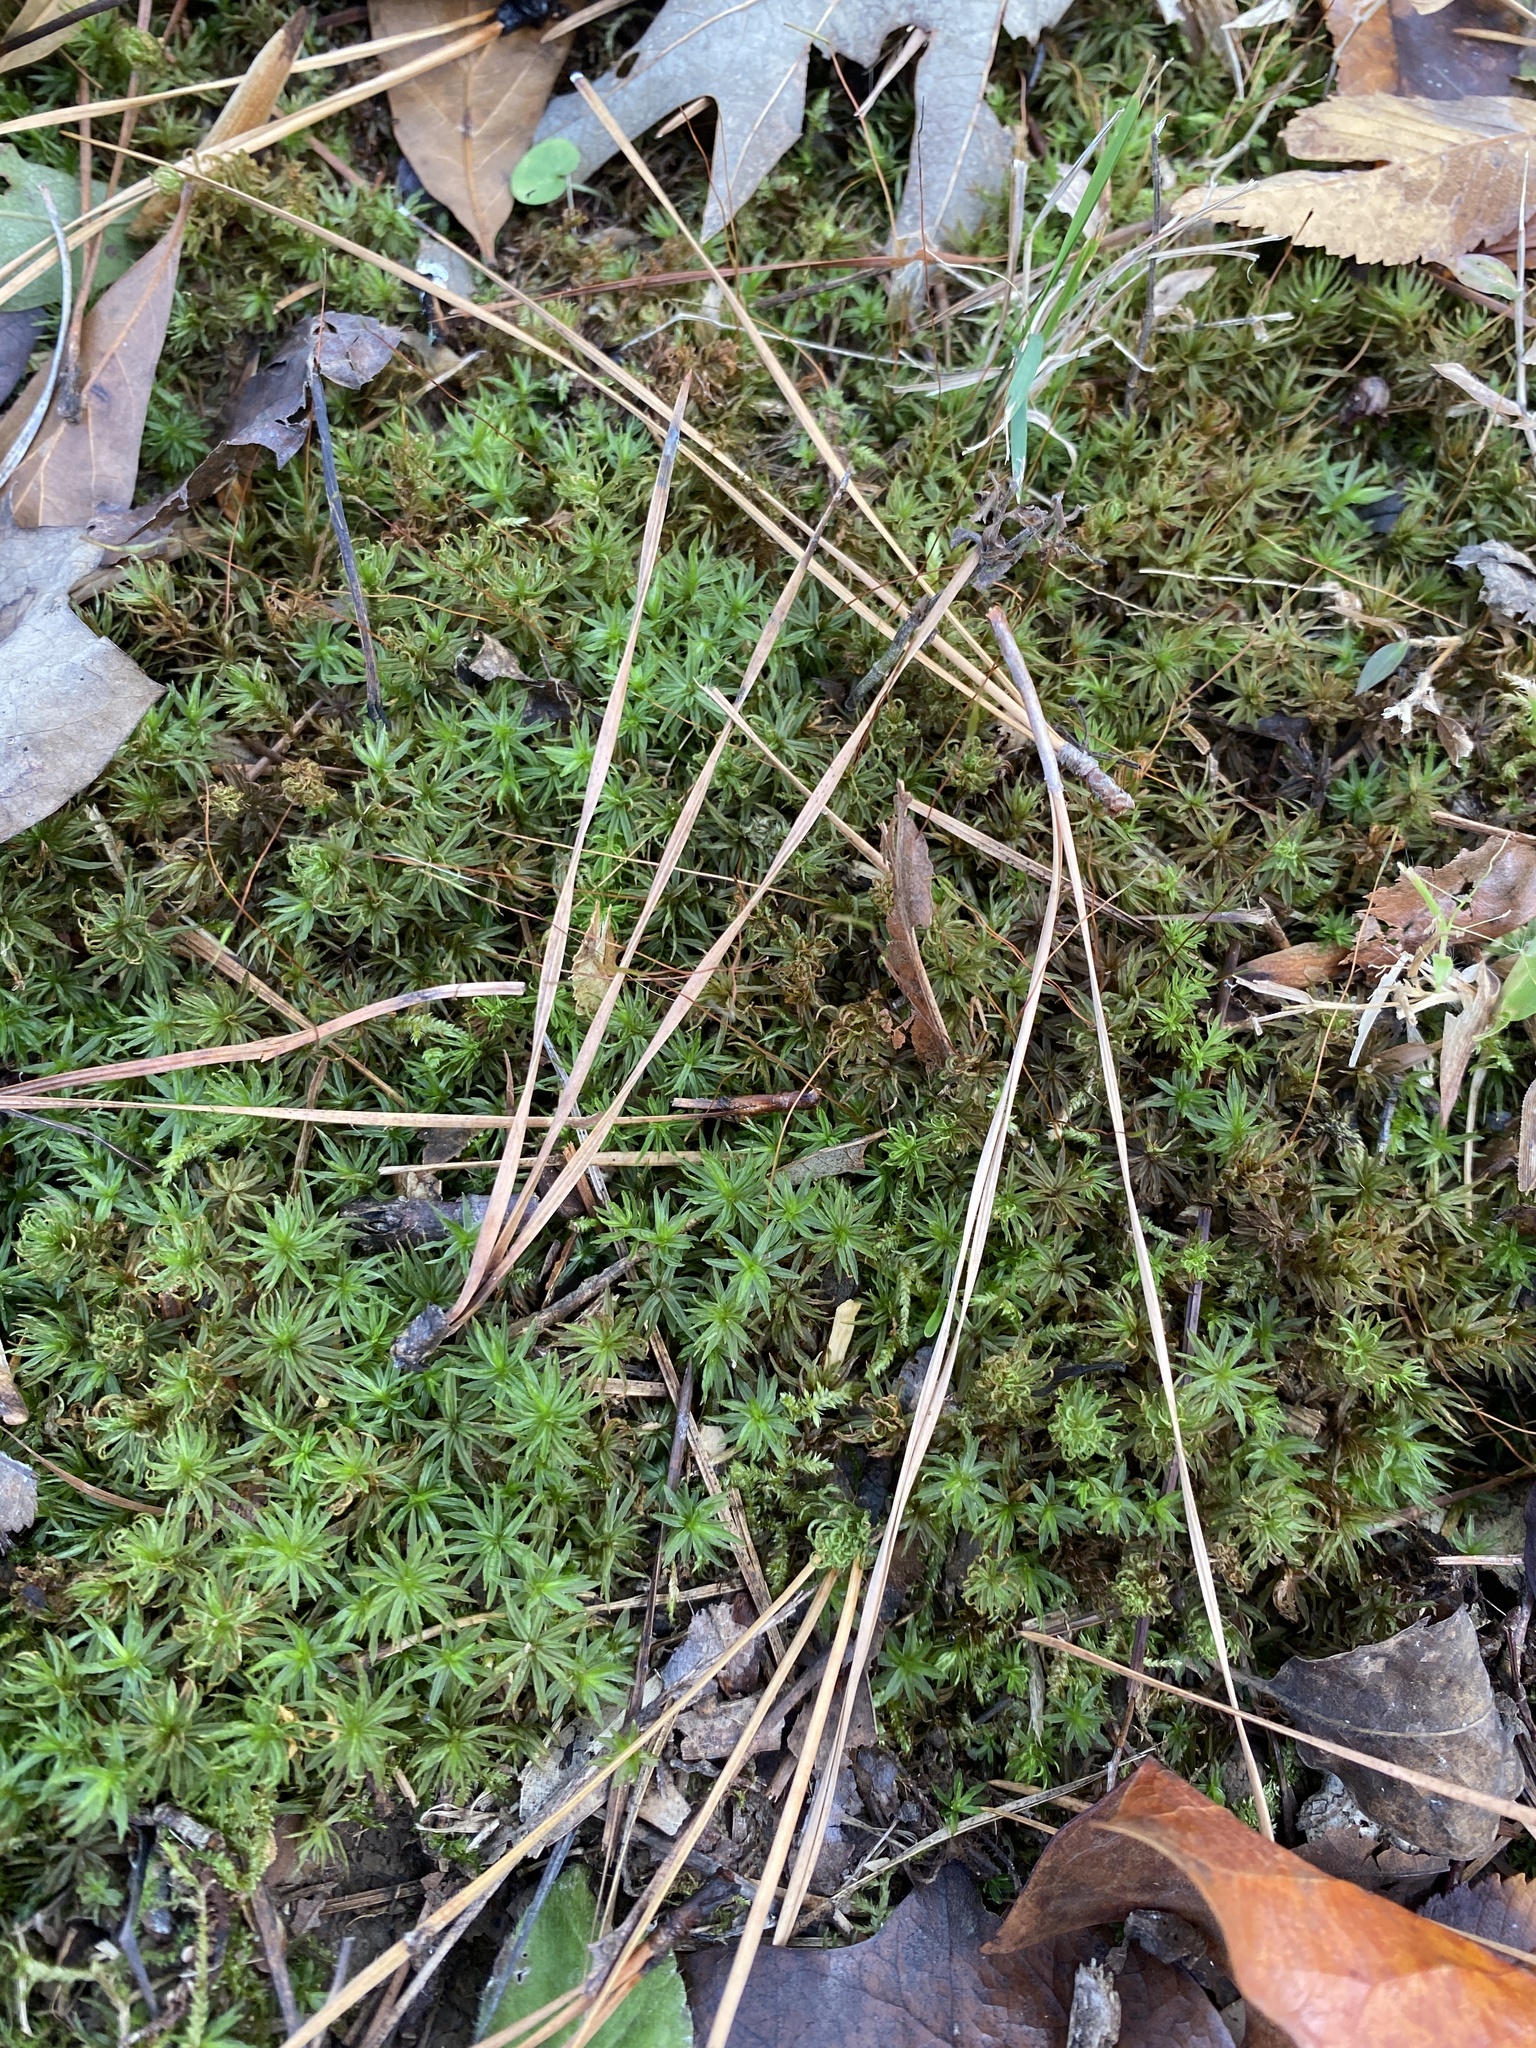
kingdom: Plantae
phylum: Bryophyta
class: Polytrichopsida
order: Polytrichales
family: Polytrichaceae
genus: Atrichum
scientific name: Atrichum
